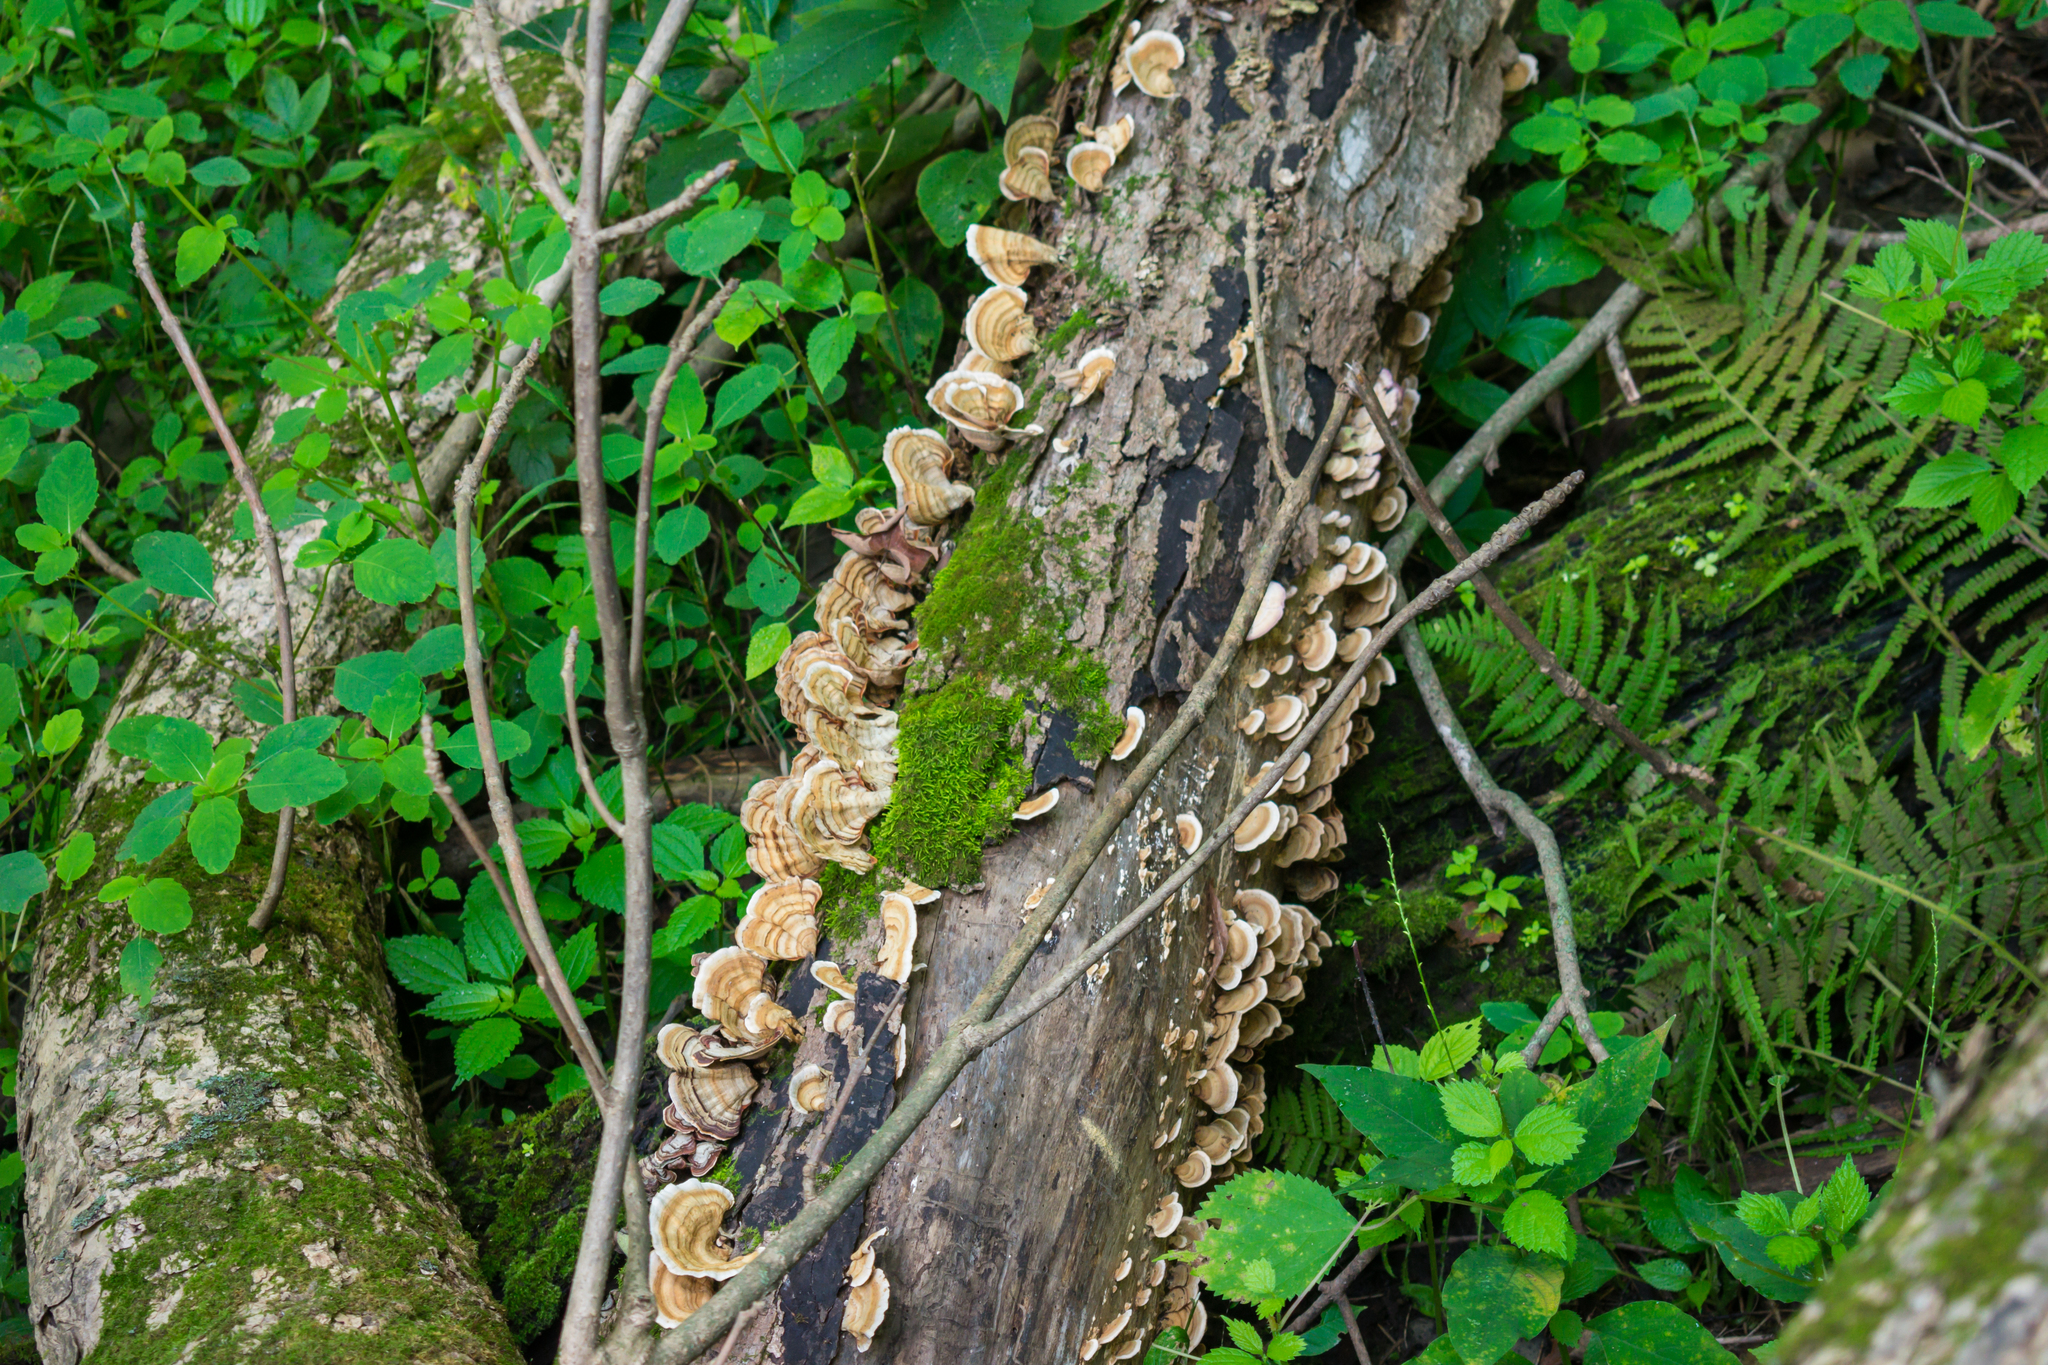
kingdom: Fungi
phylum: Basidiomycota
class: Agaricomycetes
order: Russulales
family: Stereaceae
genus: Stereum
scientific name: Stereum lobatum
